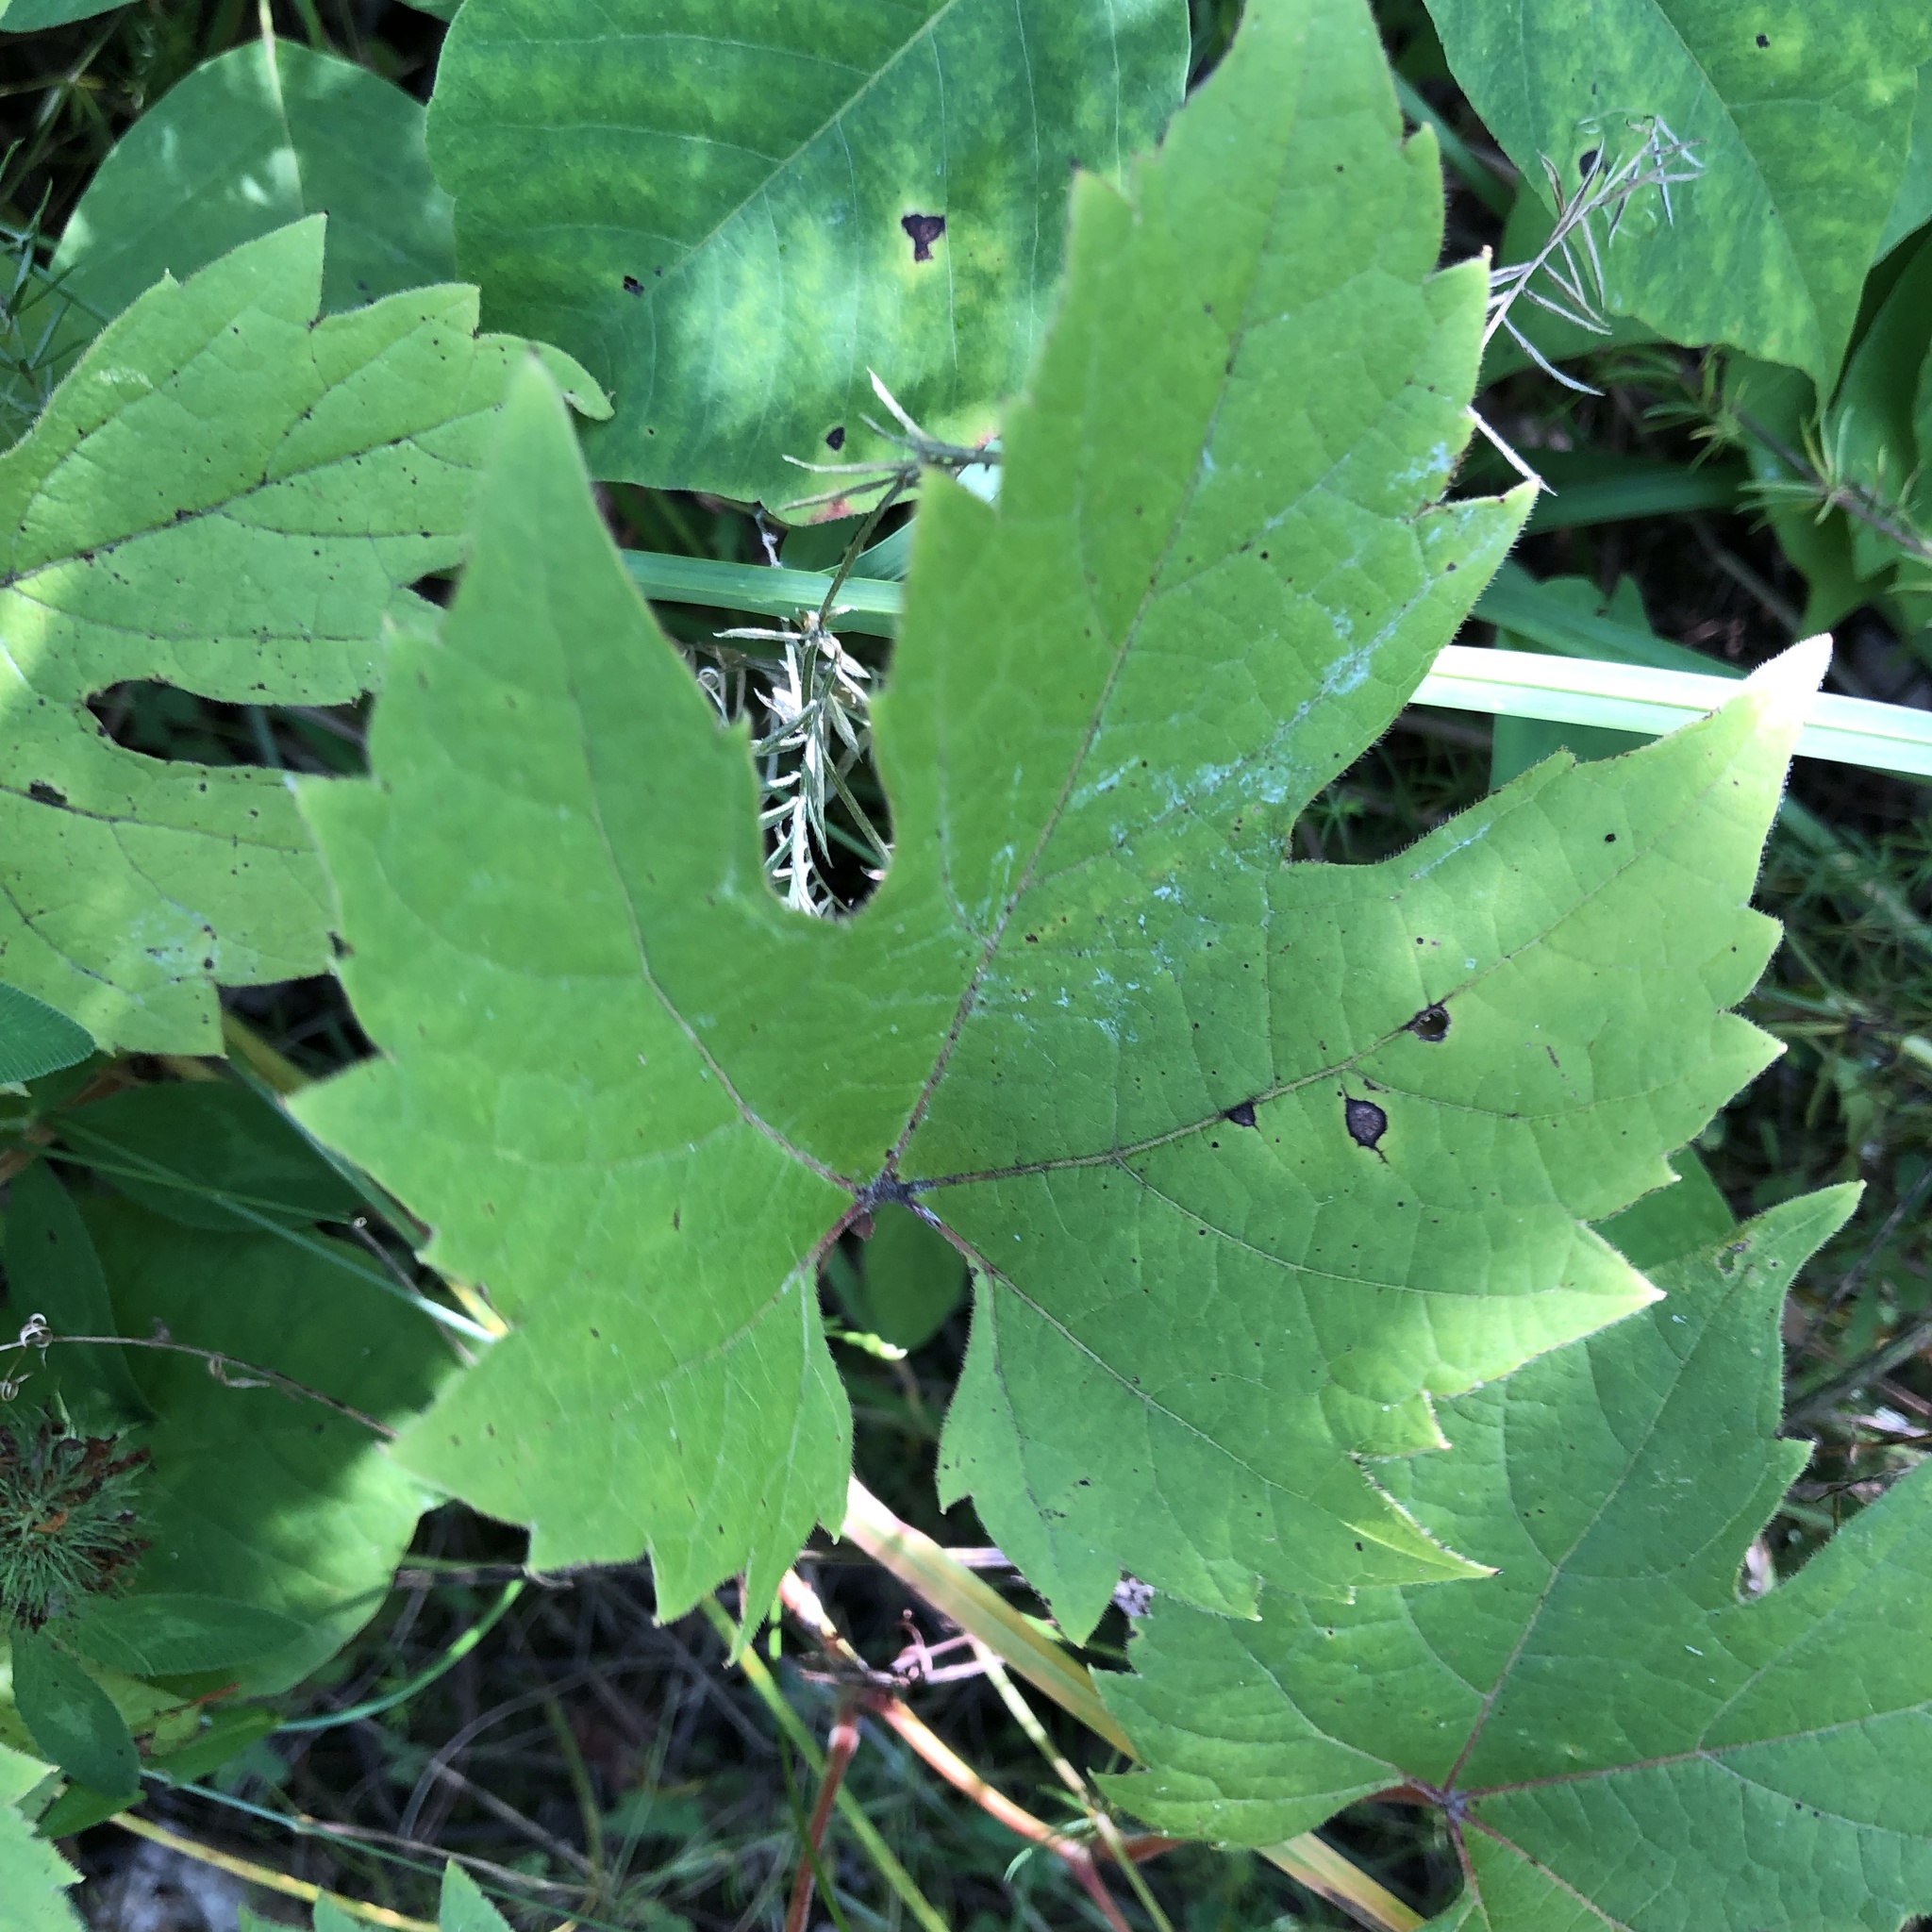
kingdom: Plantae
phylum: Tracheophyta
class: Magnoliopsida
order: Vitales
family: Vitaceae
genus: Vitis
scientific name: Vitis riparia
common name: Frost grape
